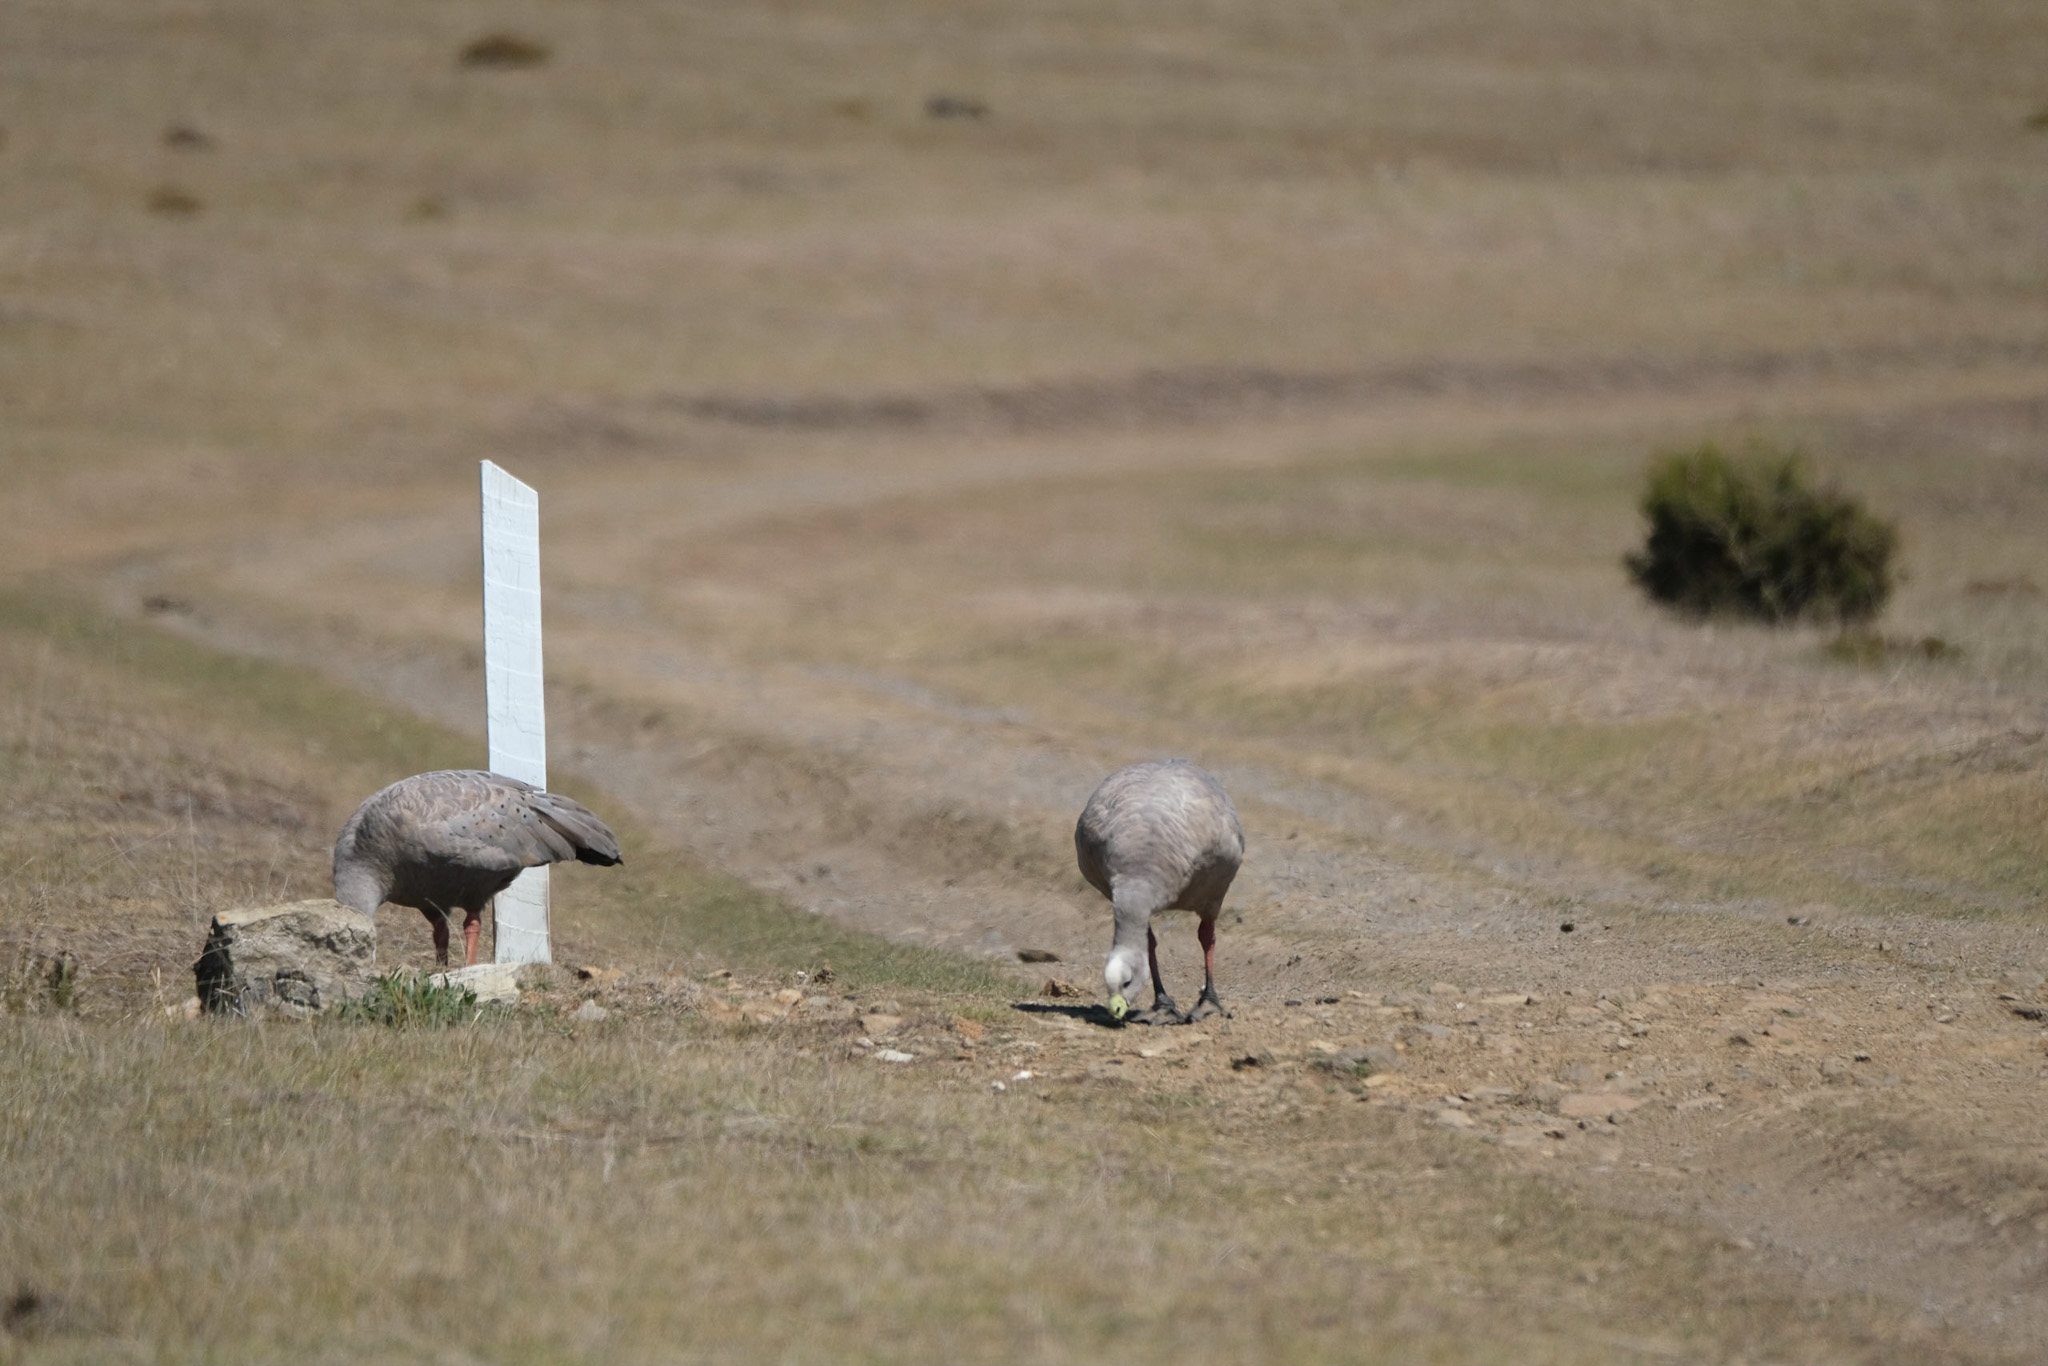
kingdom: Animalia
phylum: Chordata
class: Aves
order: Anseriformes
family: Anatidae
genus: Cereopsis
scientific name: Cereopsis novaehollandiae
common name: Cape barren goose
